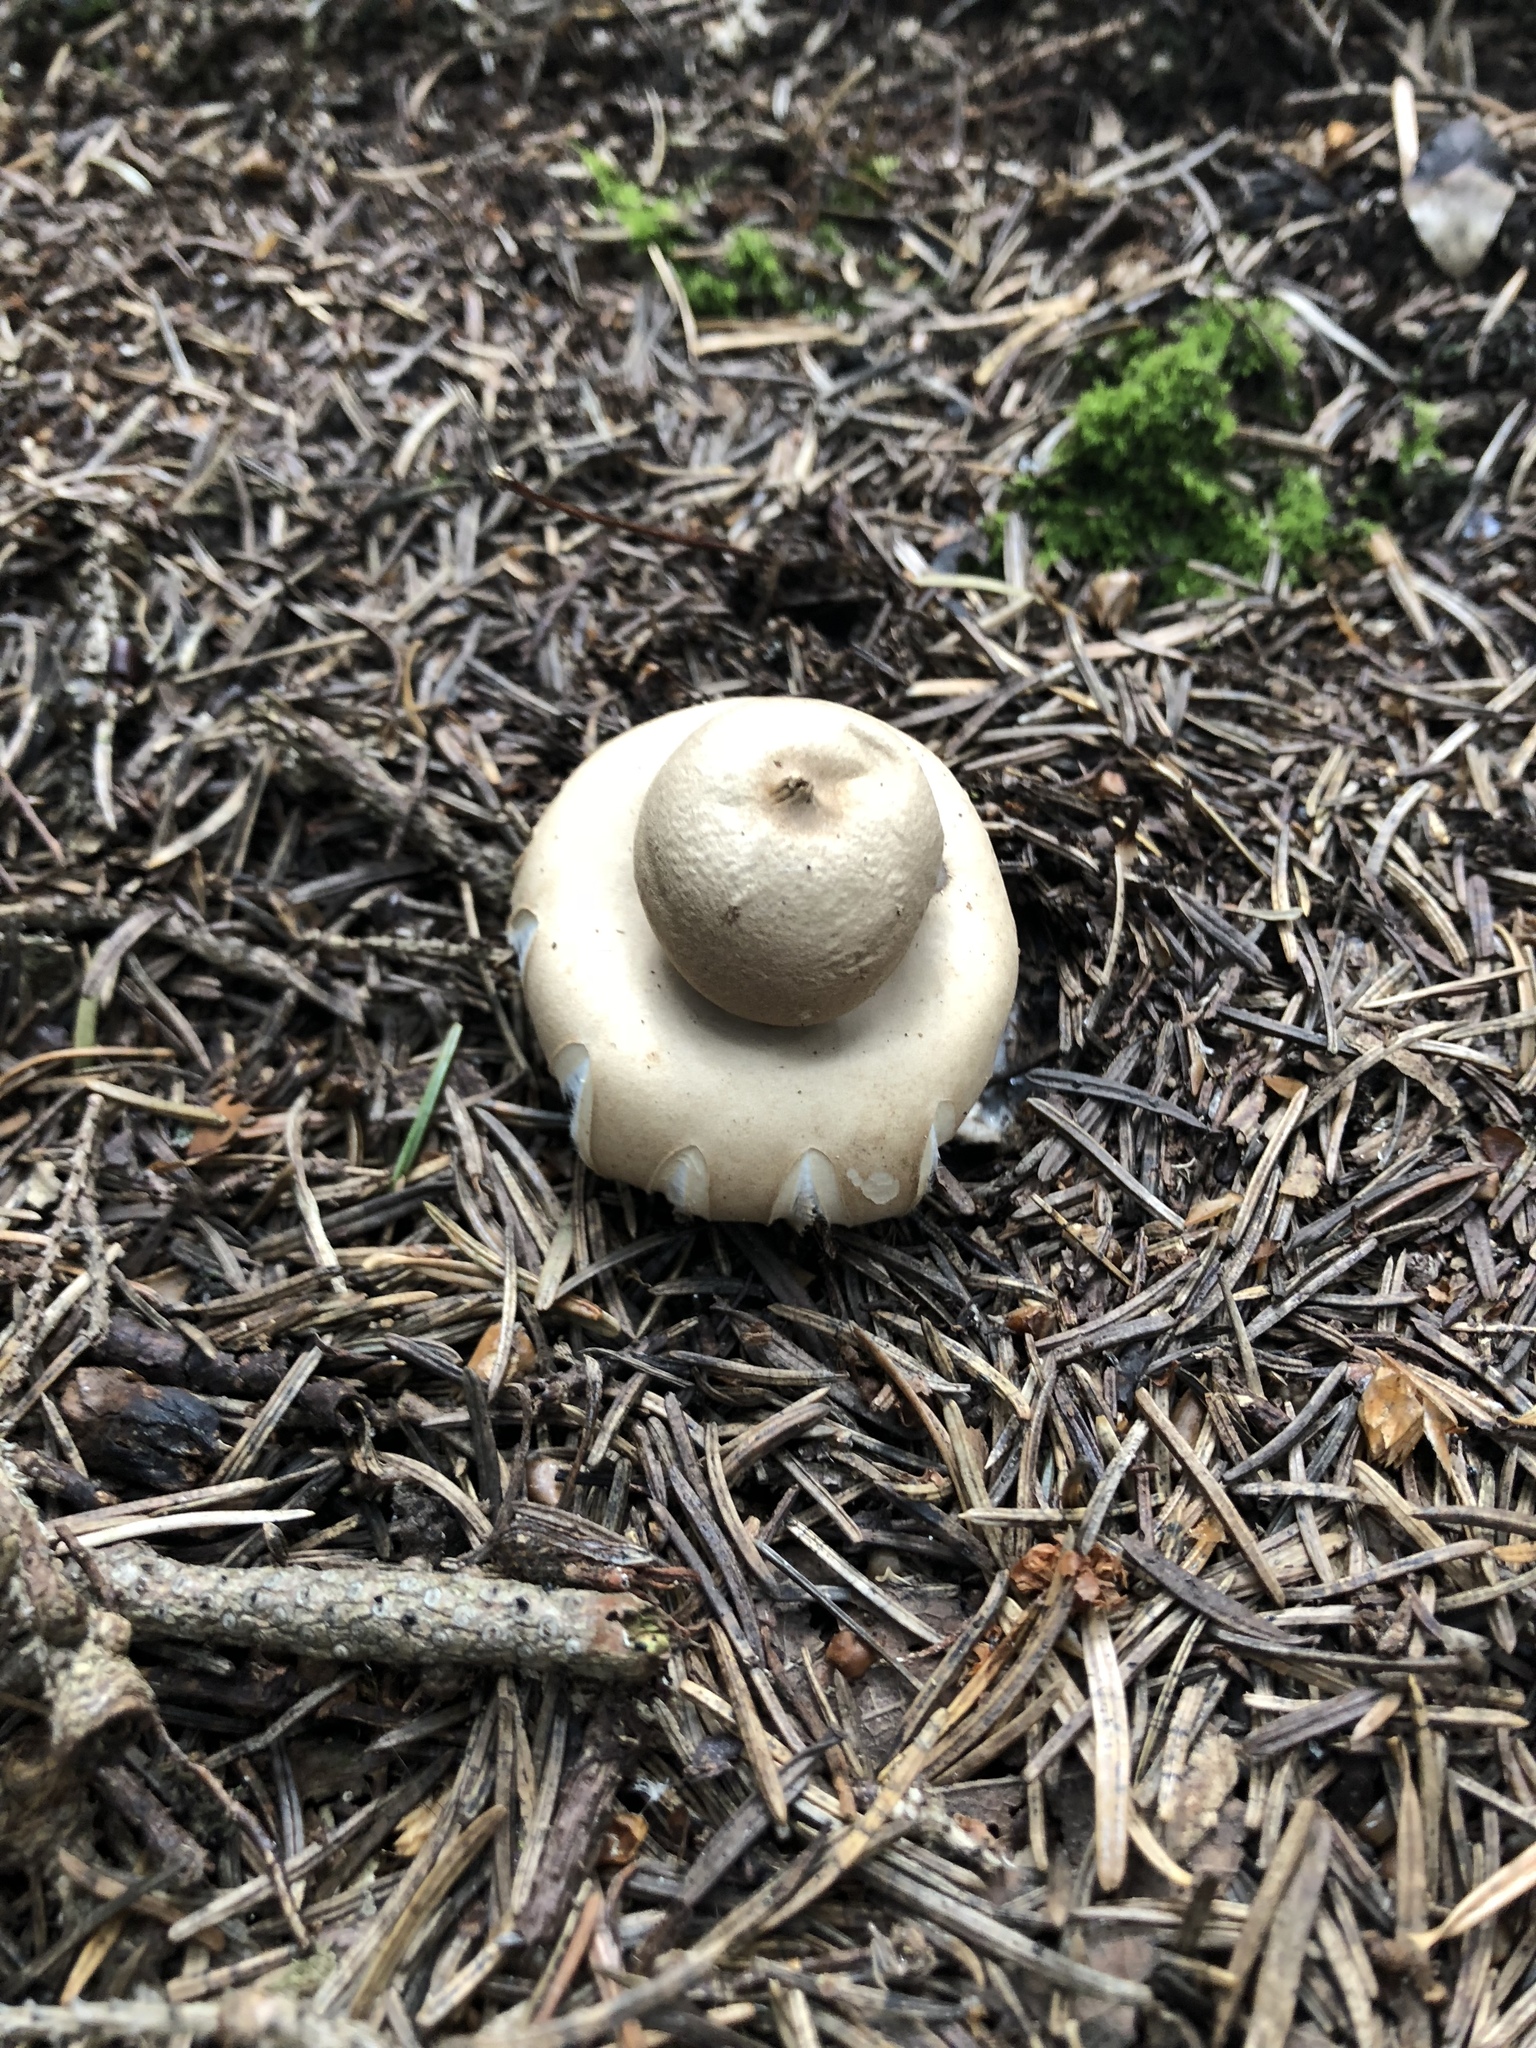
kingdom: Fungi
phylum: Basidiomycota
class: Agaricomycetes
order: Geastrales
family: Geastraceae
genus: Geastrum
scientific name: Geastrum triplex
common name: Collared earthstar
